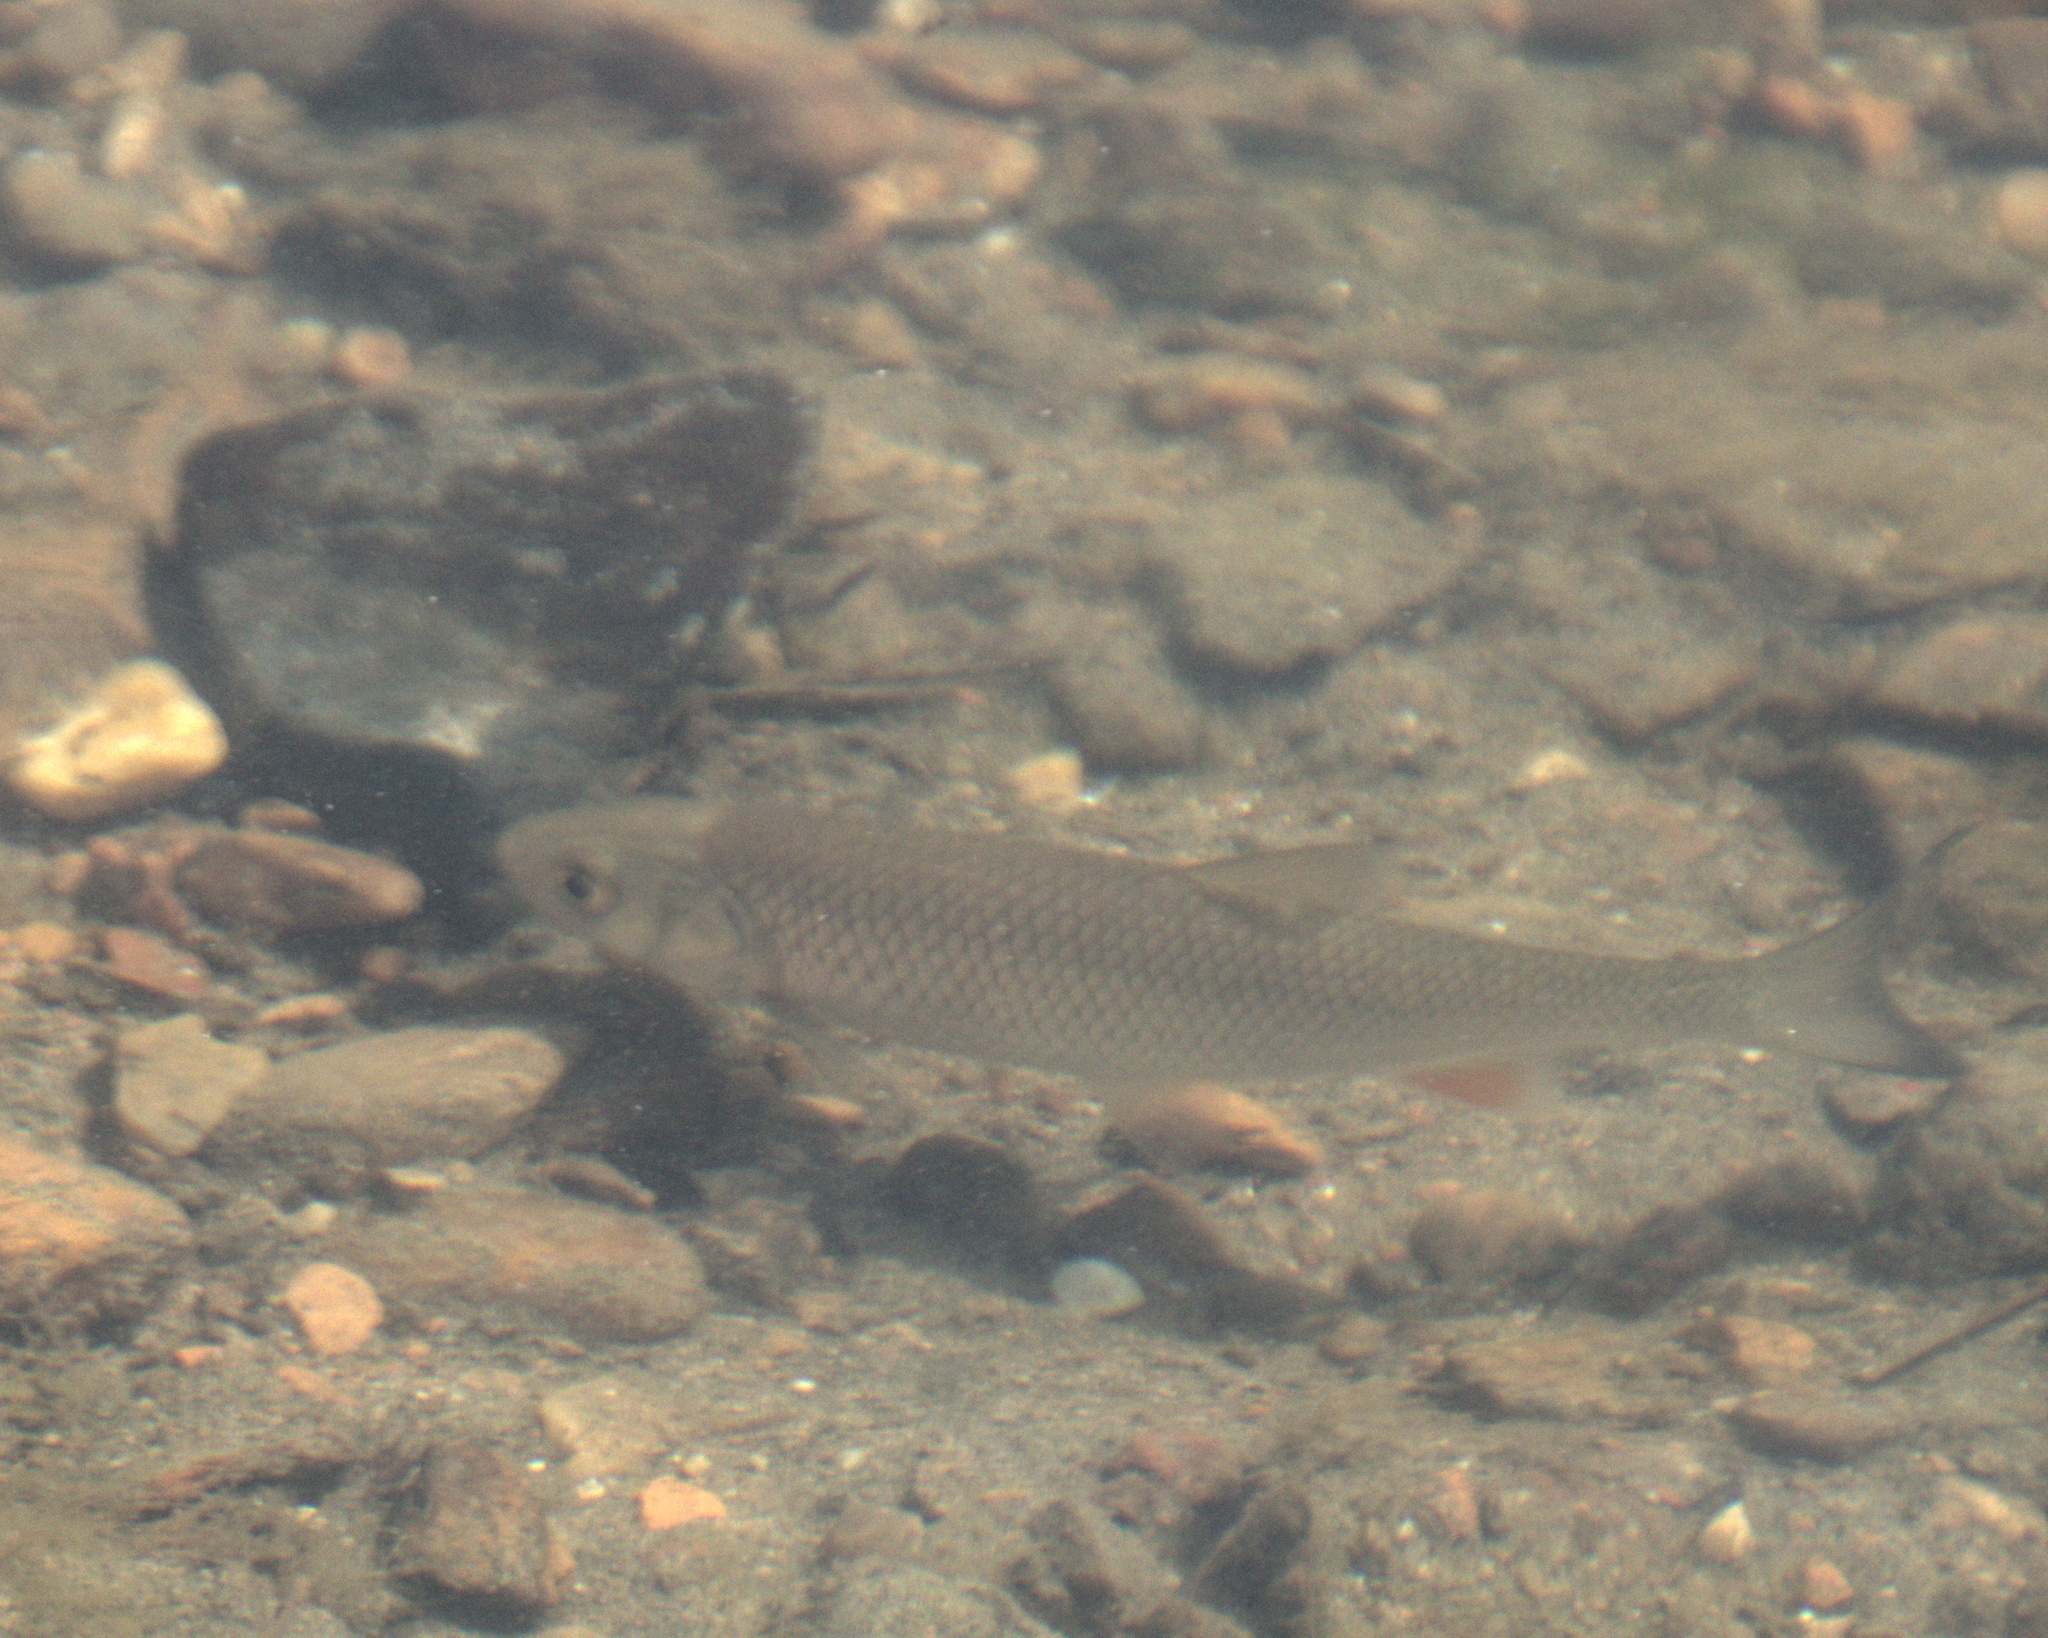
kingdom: Animalia
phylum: Chordata
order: Cypriniformes
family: Cyprinidae
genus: Squalius
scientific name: Squalius cephalus
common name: Chub
